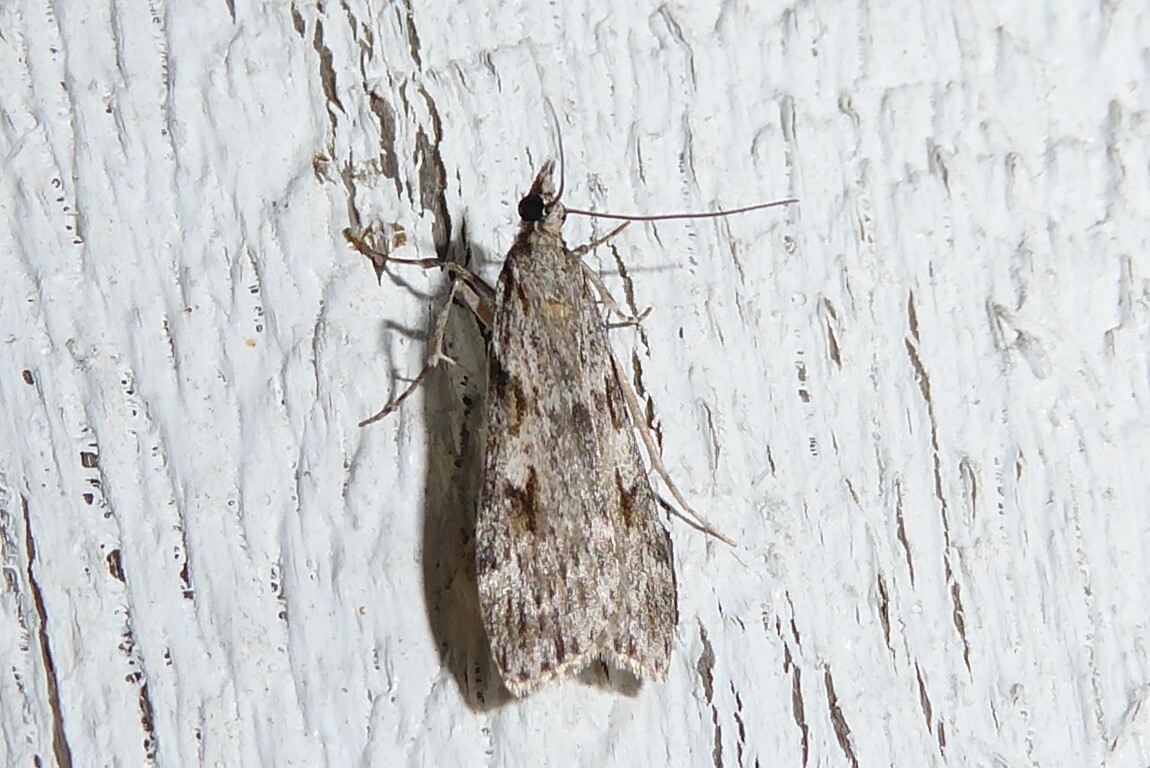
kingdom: Animalia
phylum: Arthropoda
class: Insecta
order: Lepidoptera
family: Crambidae
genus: Scoparia
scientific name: Scoparia halopis
